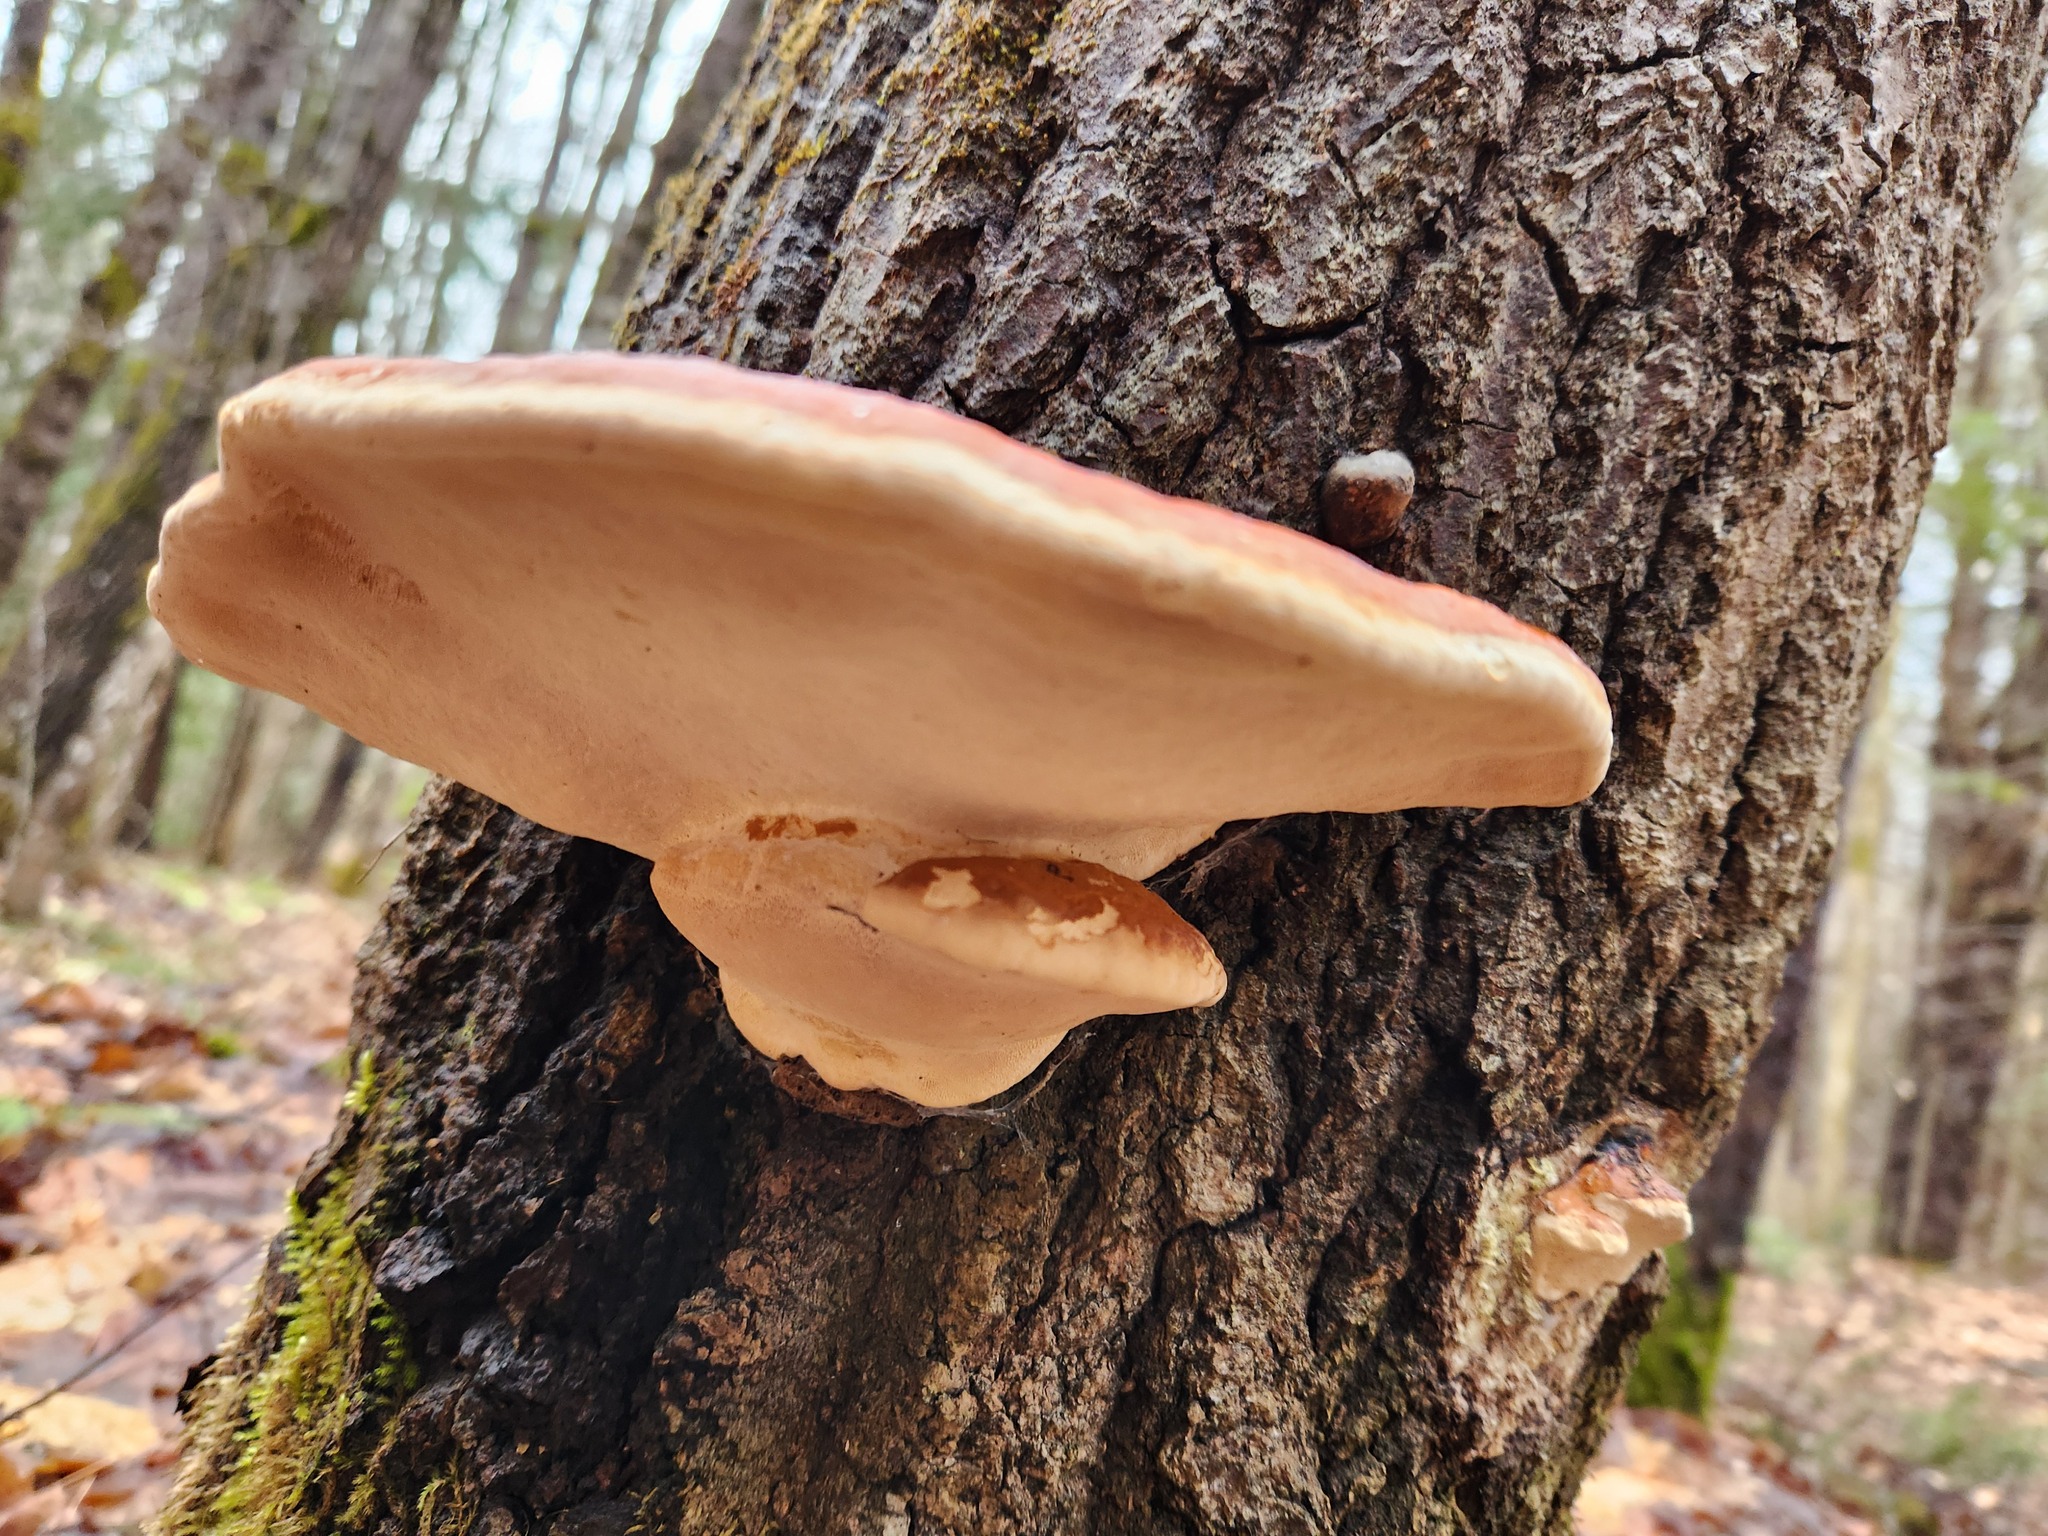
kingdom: Fungi
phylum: Basidiomycota
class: Agaricomycetes
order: Polyporales
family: Fomitopsidaceae
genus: Fomitopsis
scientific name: Fomitopsis mounceae
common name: Northern red belt
